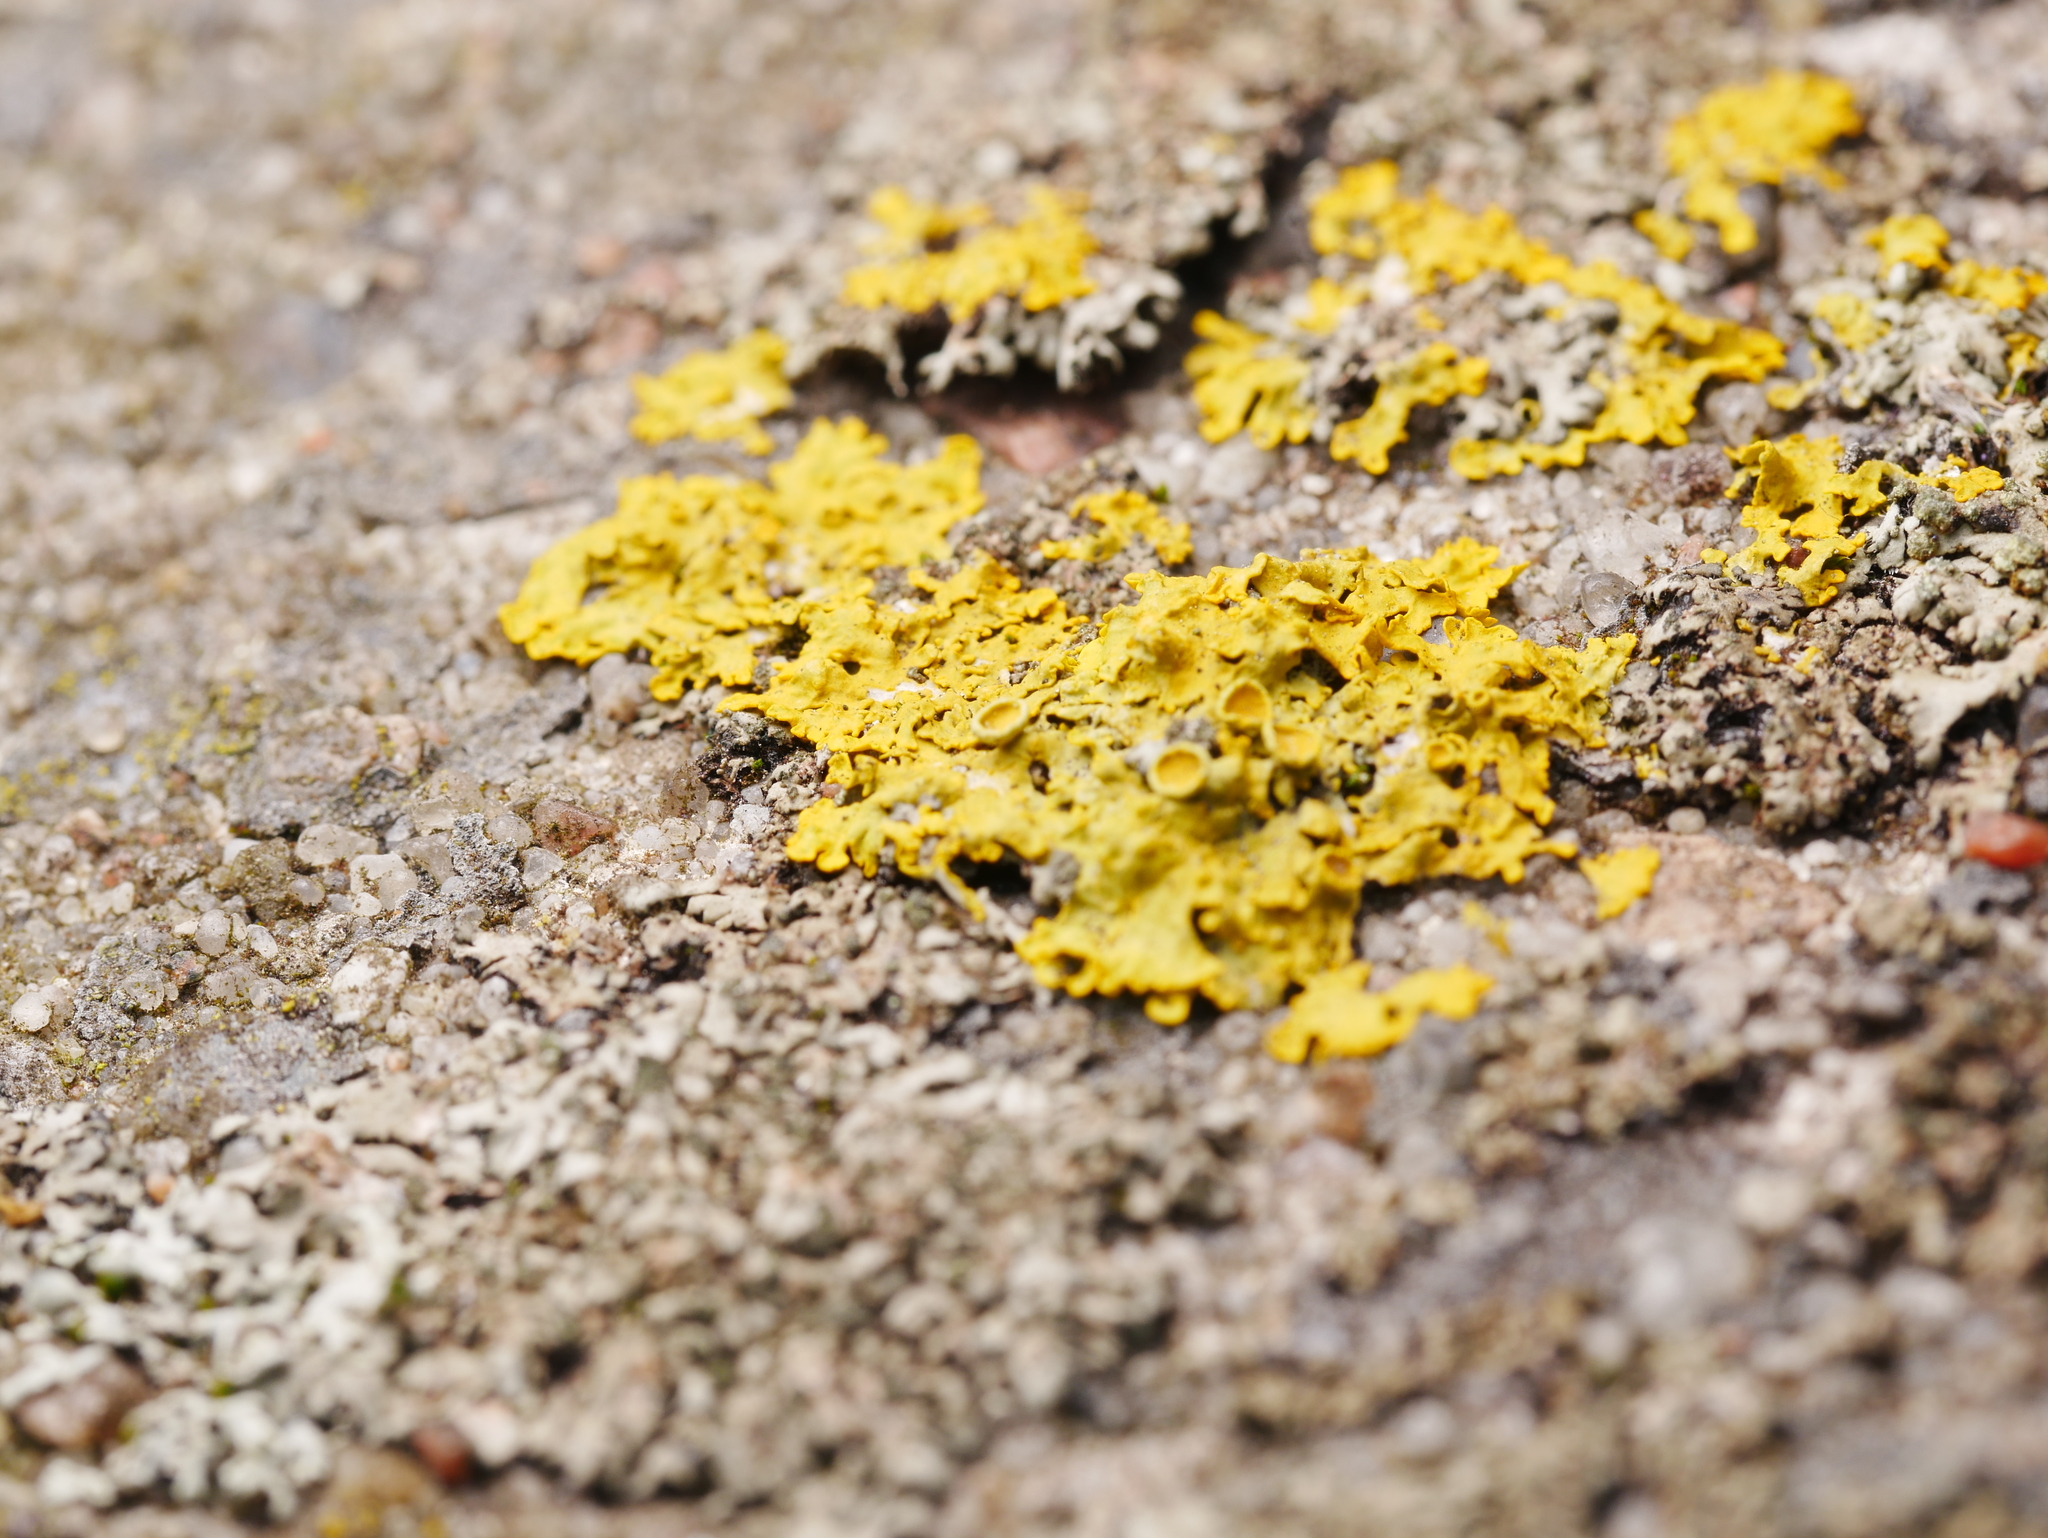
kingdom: Fungi
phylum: Ascomycota
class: Lecanoromycetes
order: Teloschistales
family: Teloschistaceae
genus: Xanthoria
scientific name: Xanthoria parietina
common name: Common orange lichen
